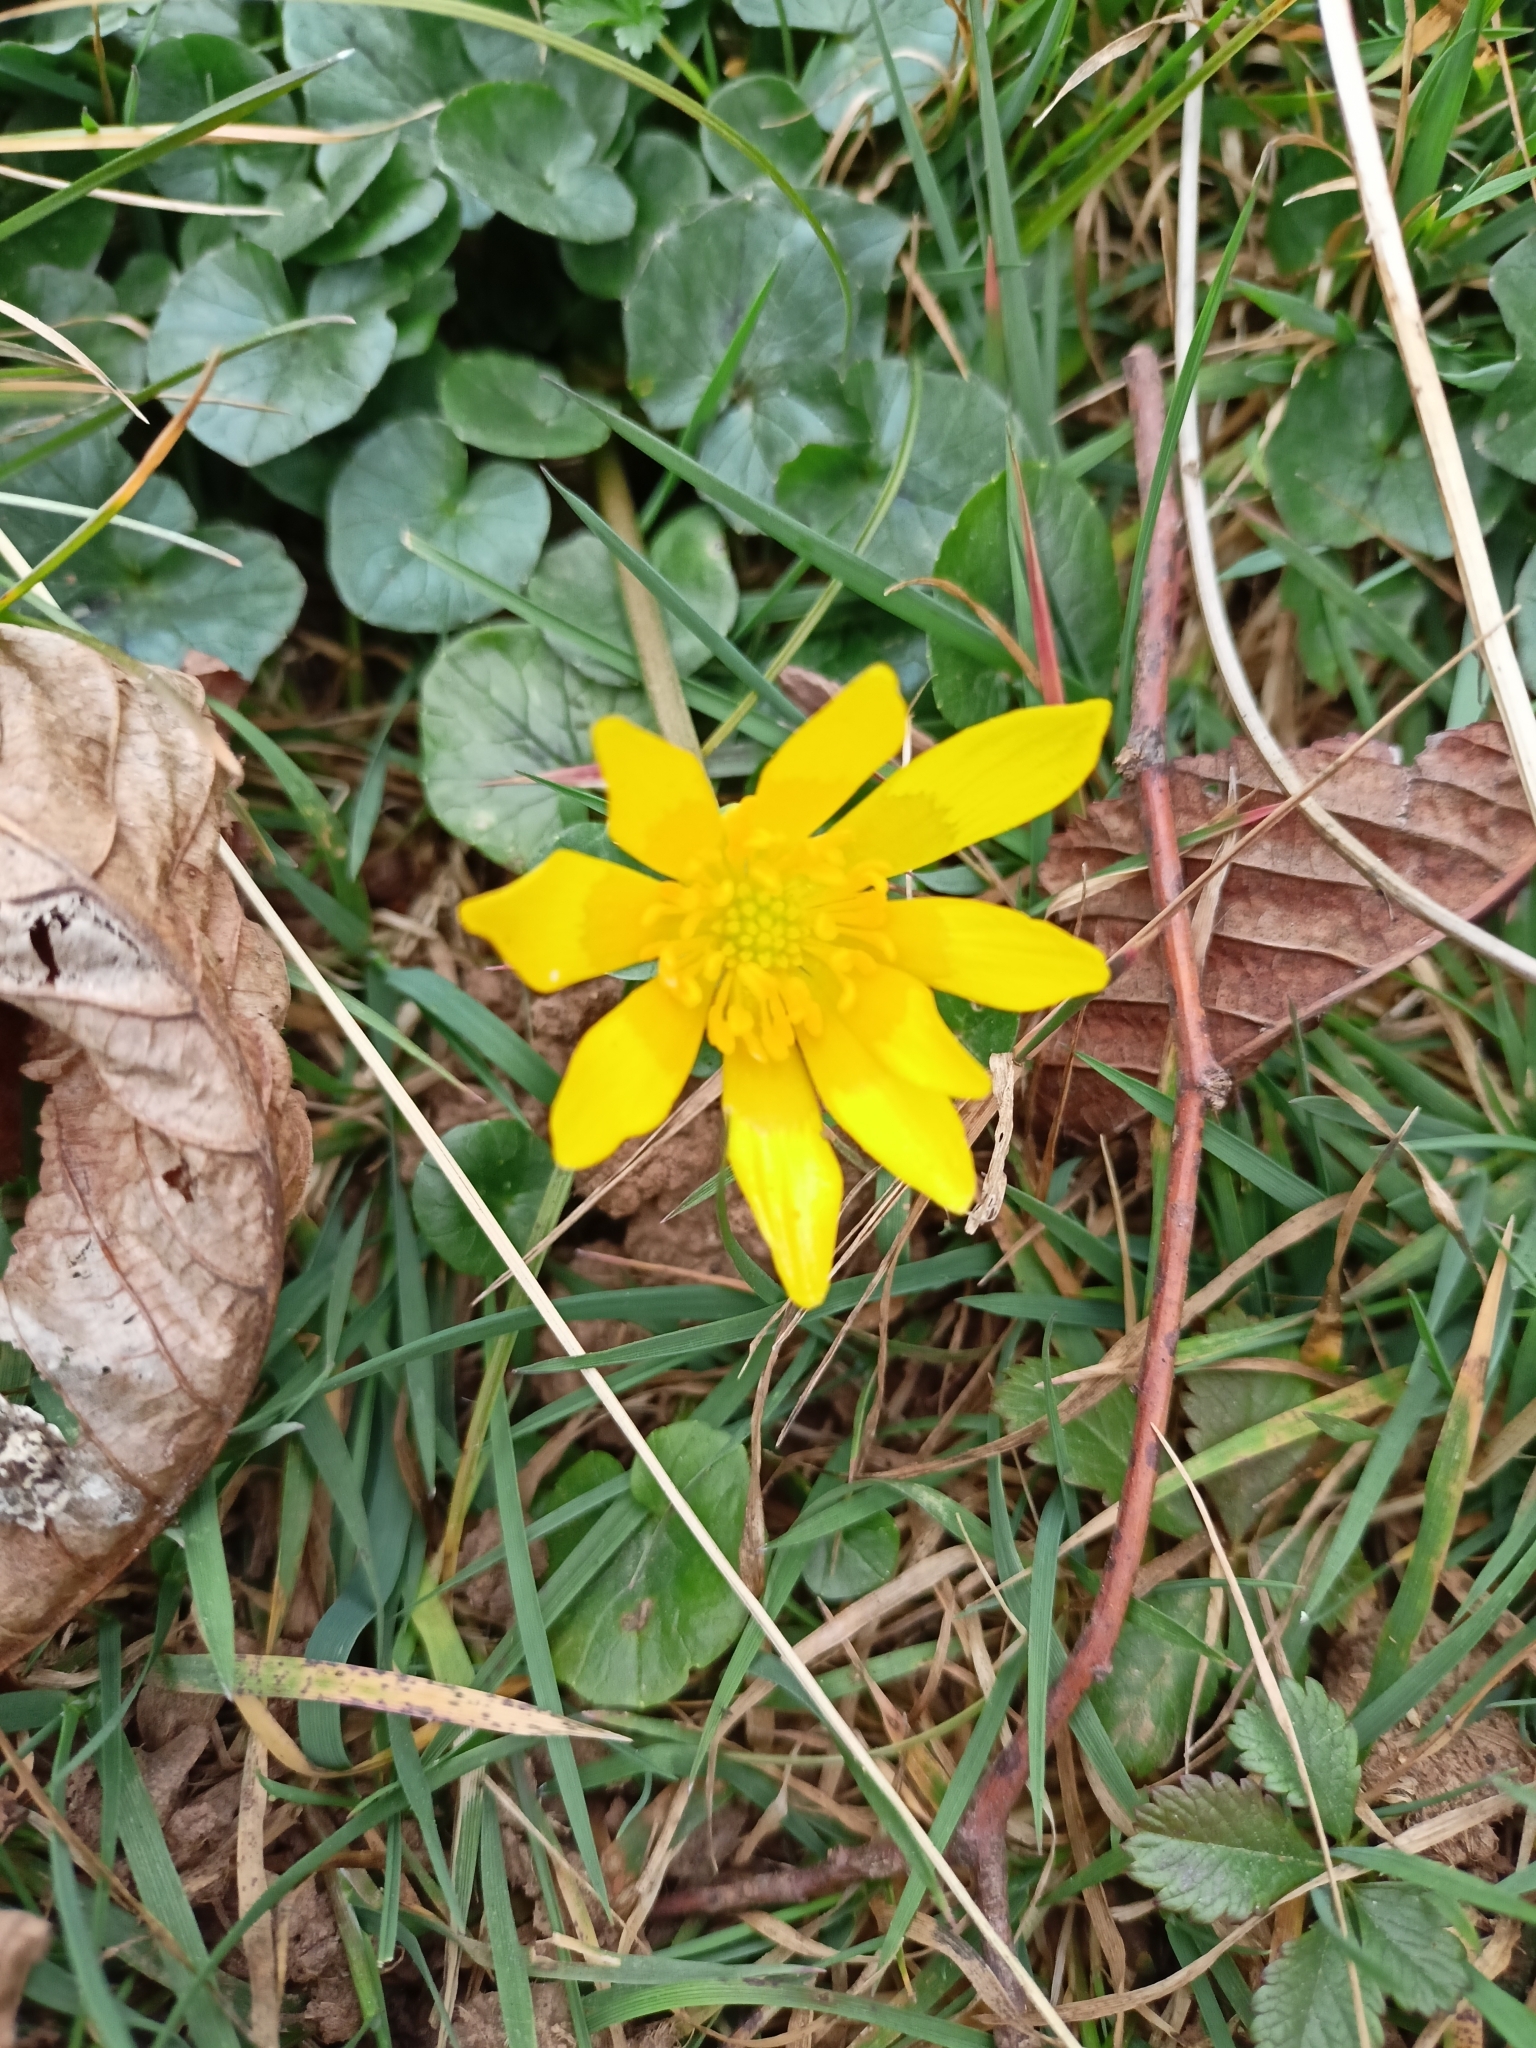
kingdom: Plantae
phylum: Tracheophyta
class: Magnoliopsida
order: Ranunculales
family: Ranunculaceae
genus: Ficaria
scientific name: Ficaria verna
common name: Lesser celandine
